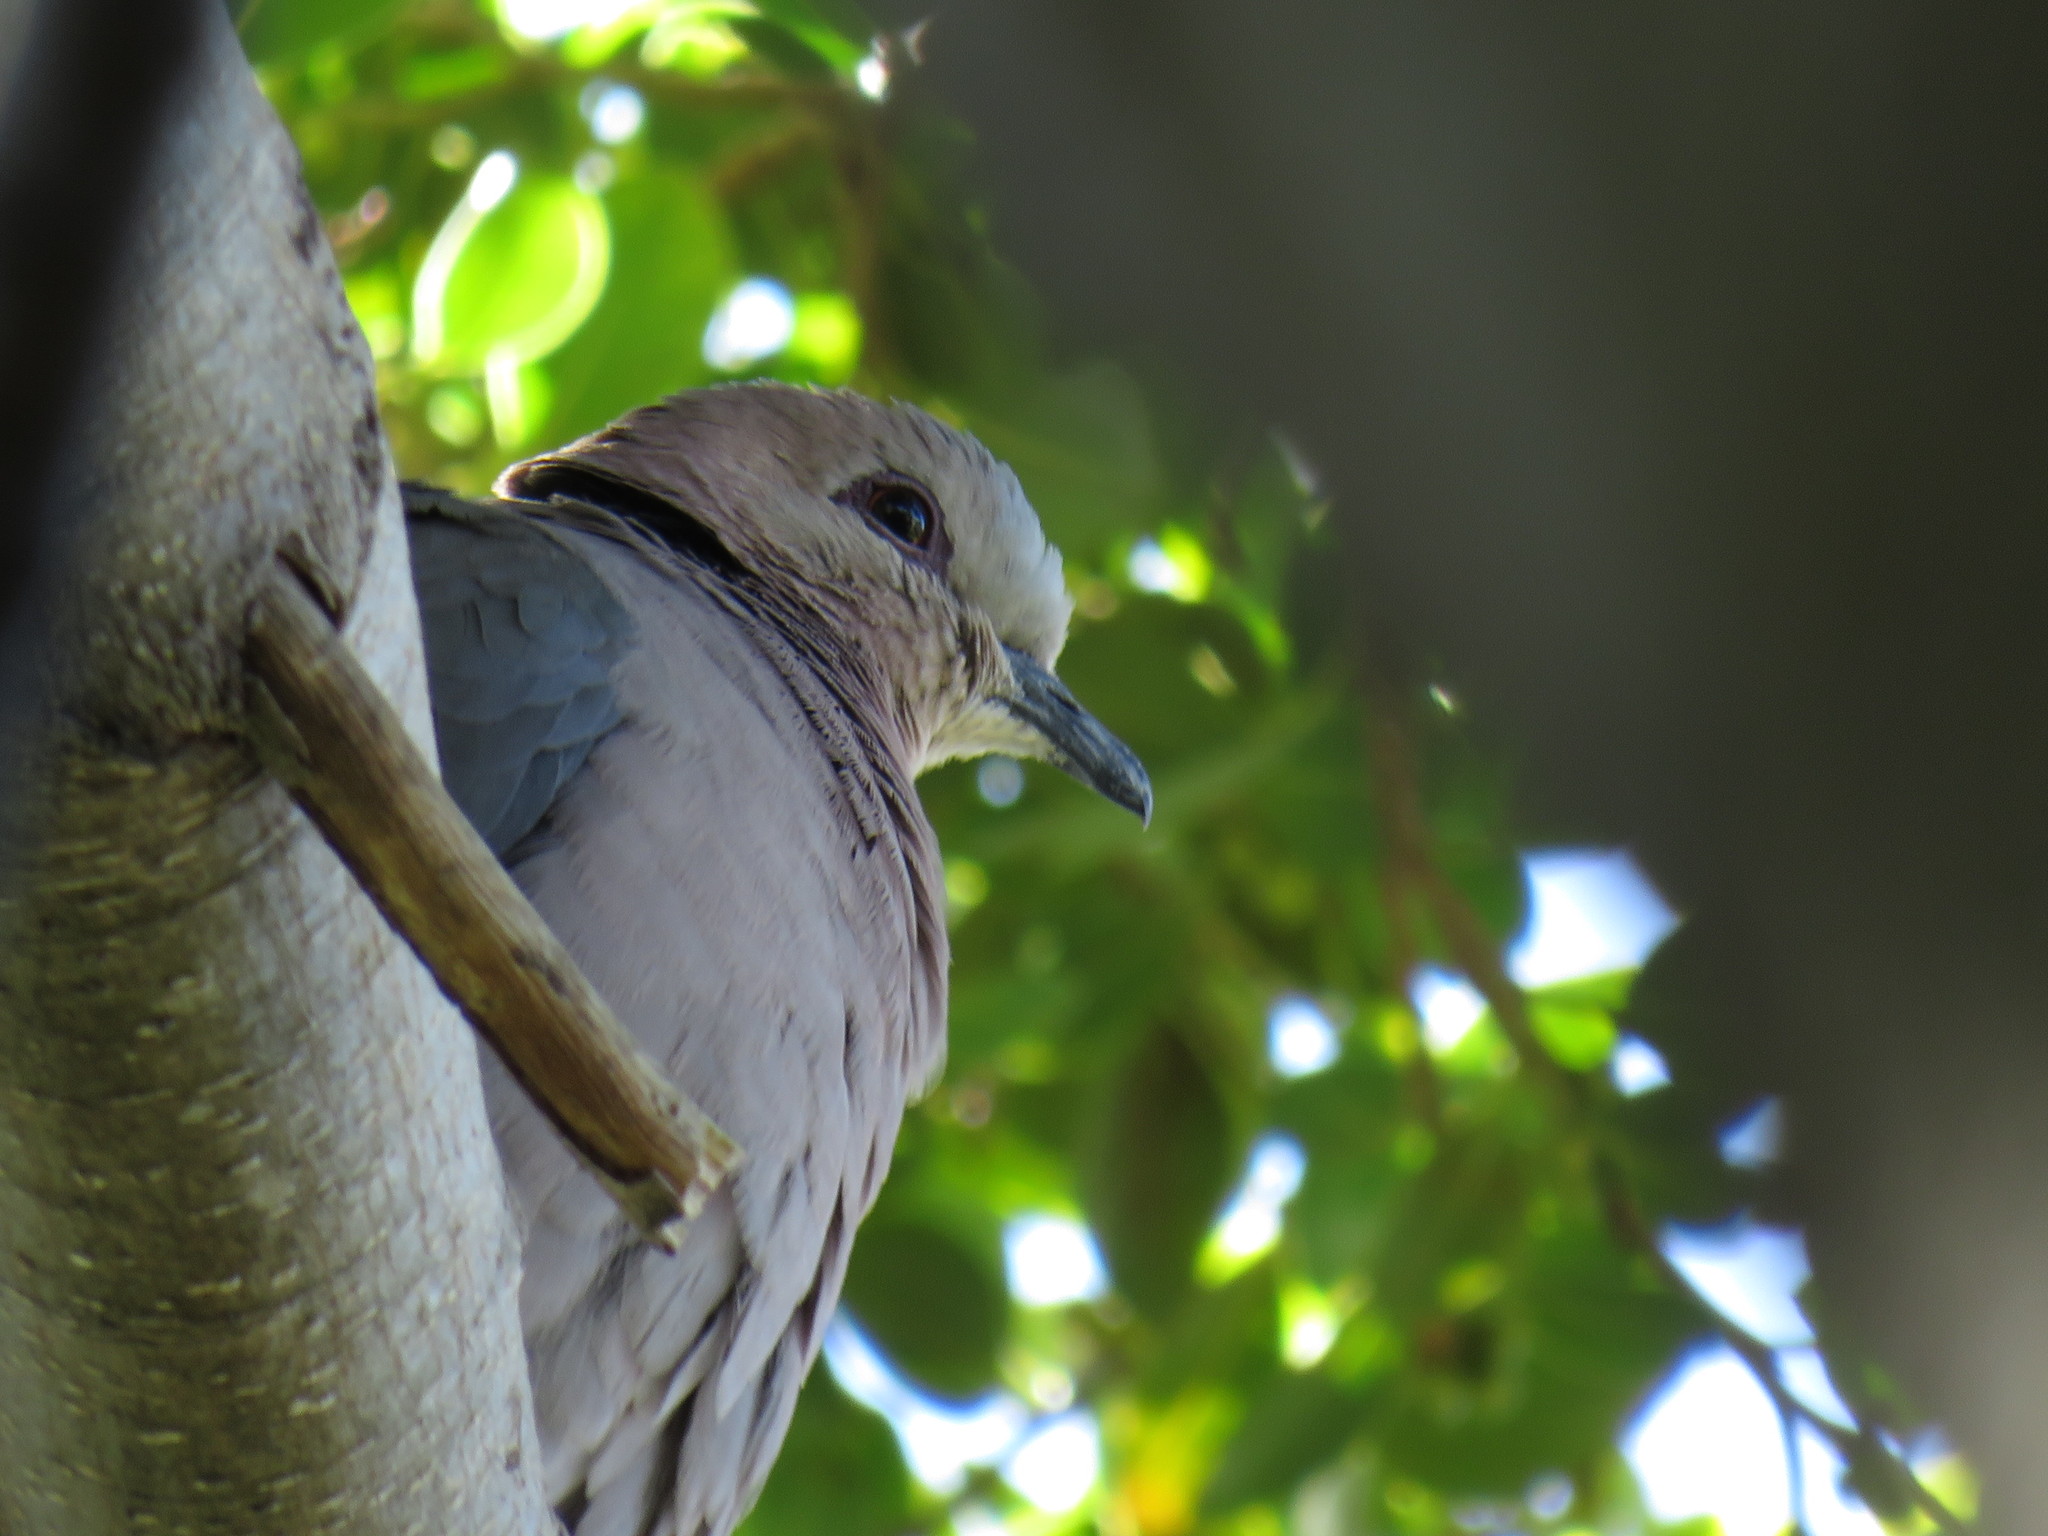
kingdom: Animalia
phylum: Chordata
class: Aves
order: Columbiformes
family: Columbidae
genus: Streptopelia
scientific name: Streptopelia semitorquata
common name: Red-eyed dove
